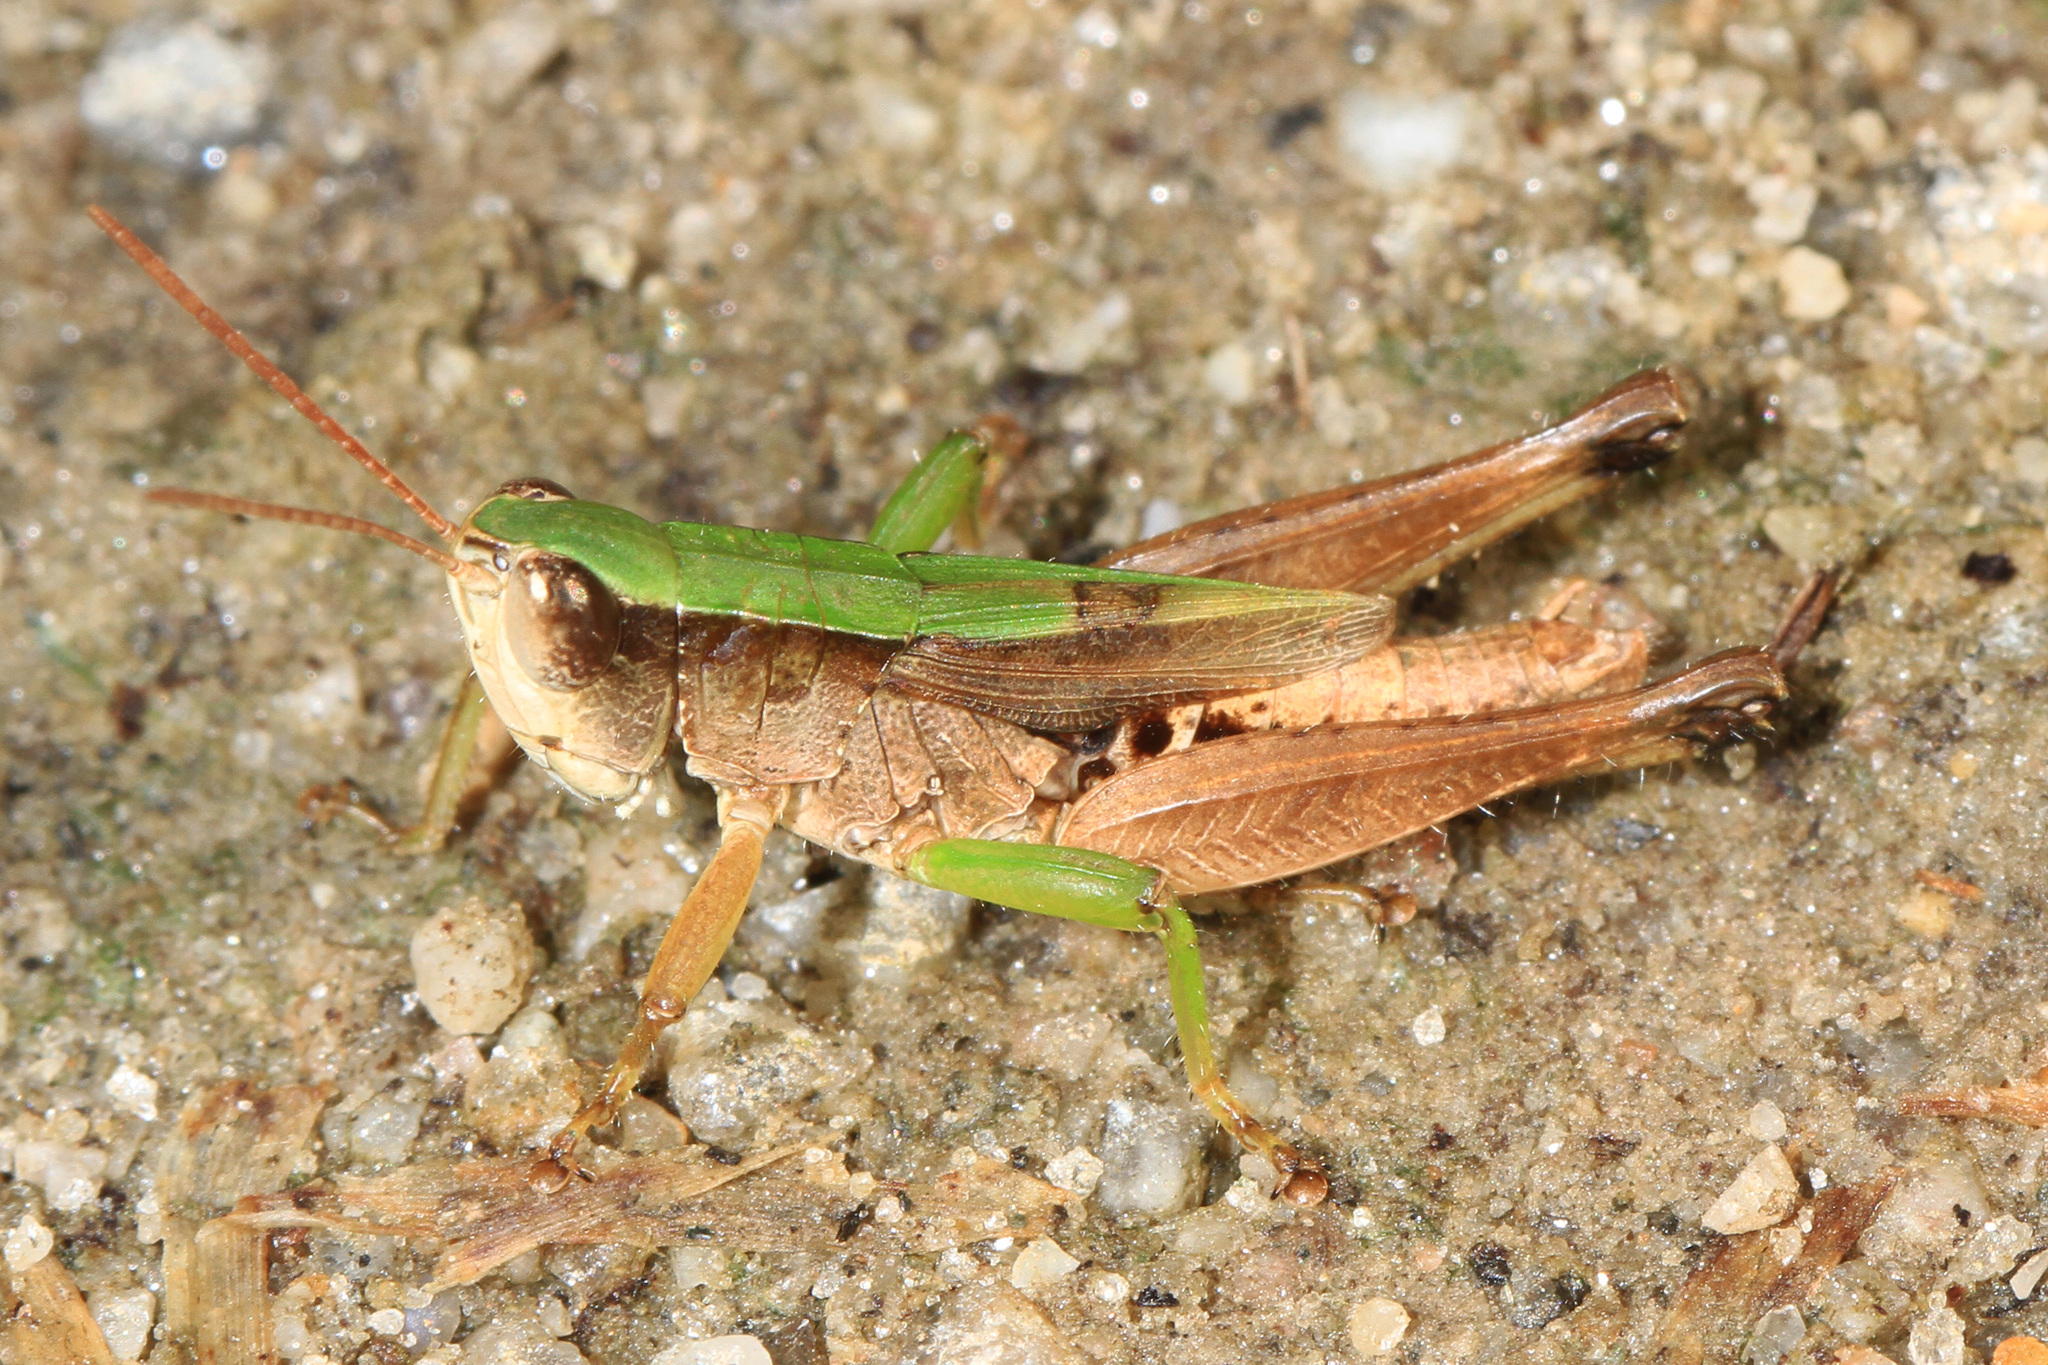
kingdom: Animalia
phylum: Arthropoda
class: Insecta
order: Orthoptera
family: Acrididae
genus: Dichromorpha
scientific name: Dichromorpha viridis
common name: Short-winged green grasshopper
